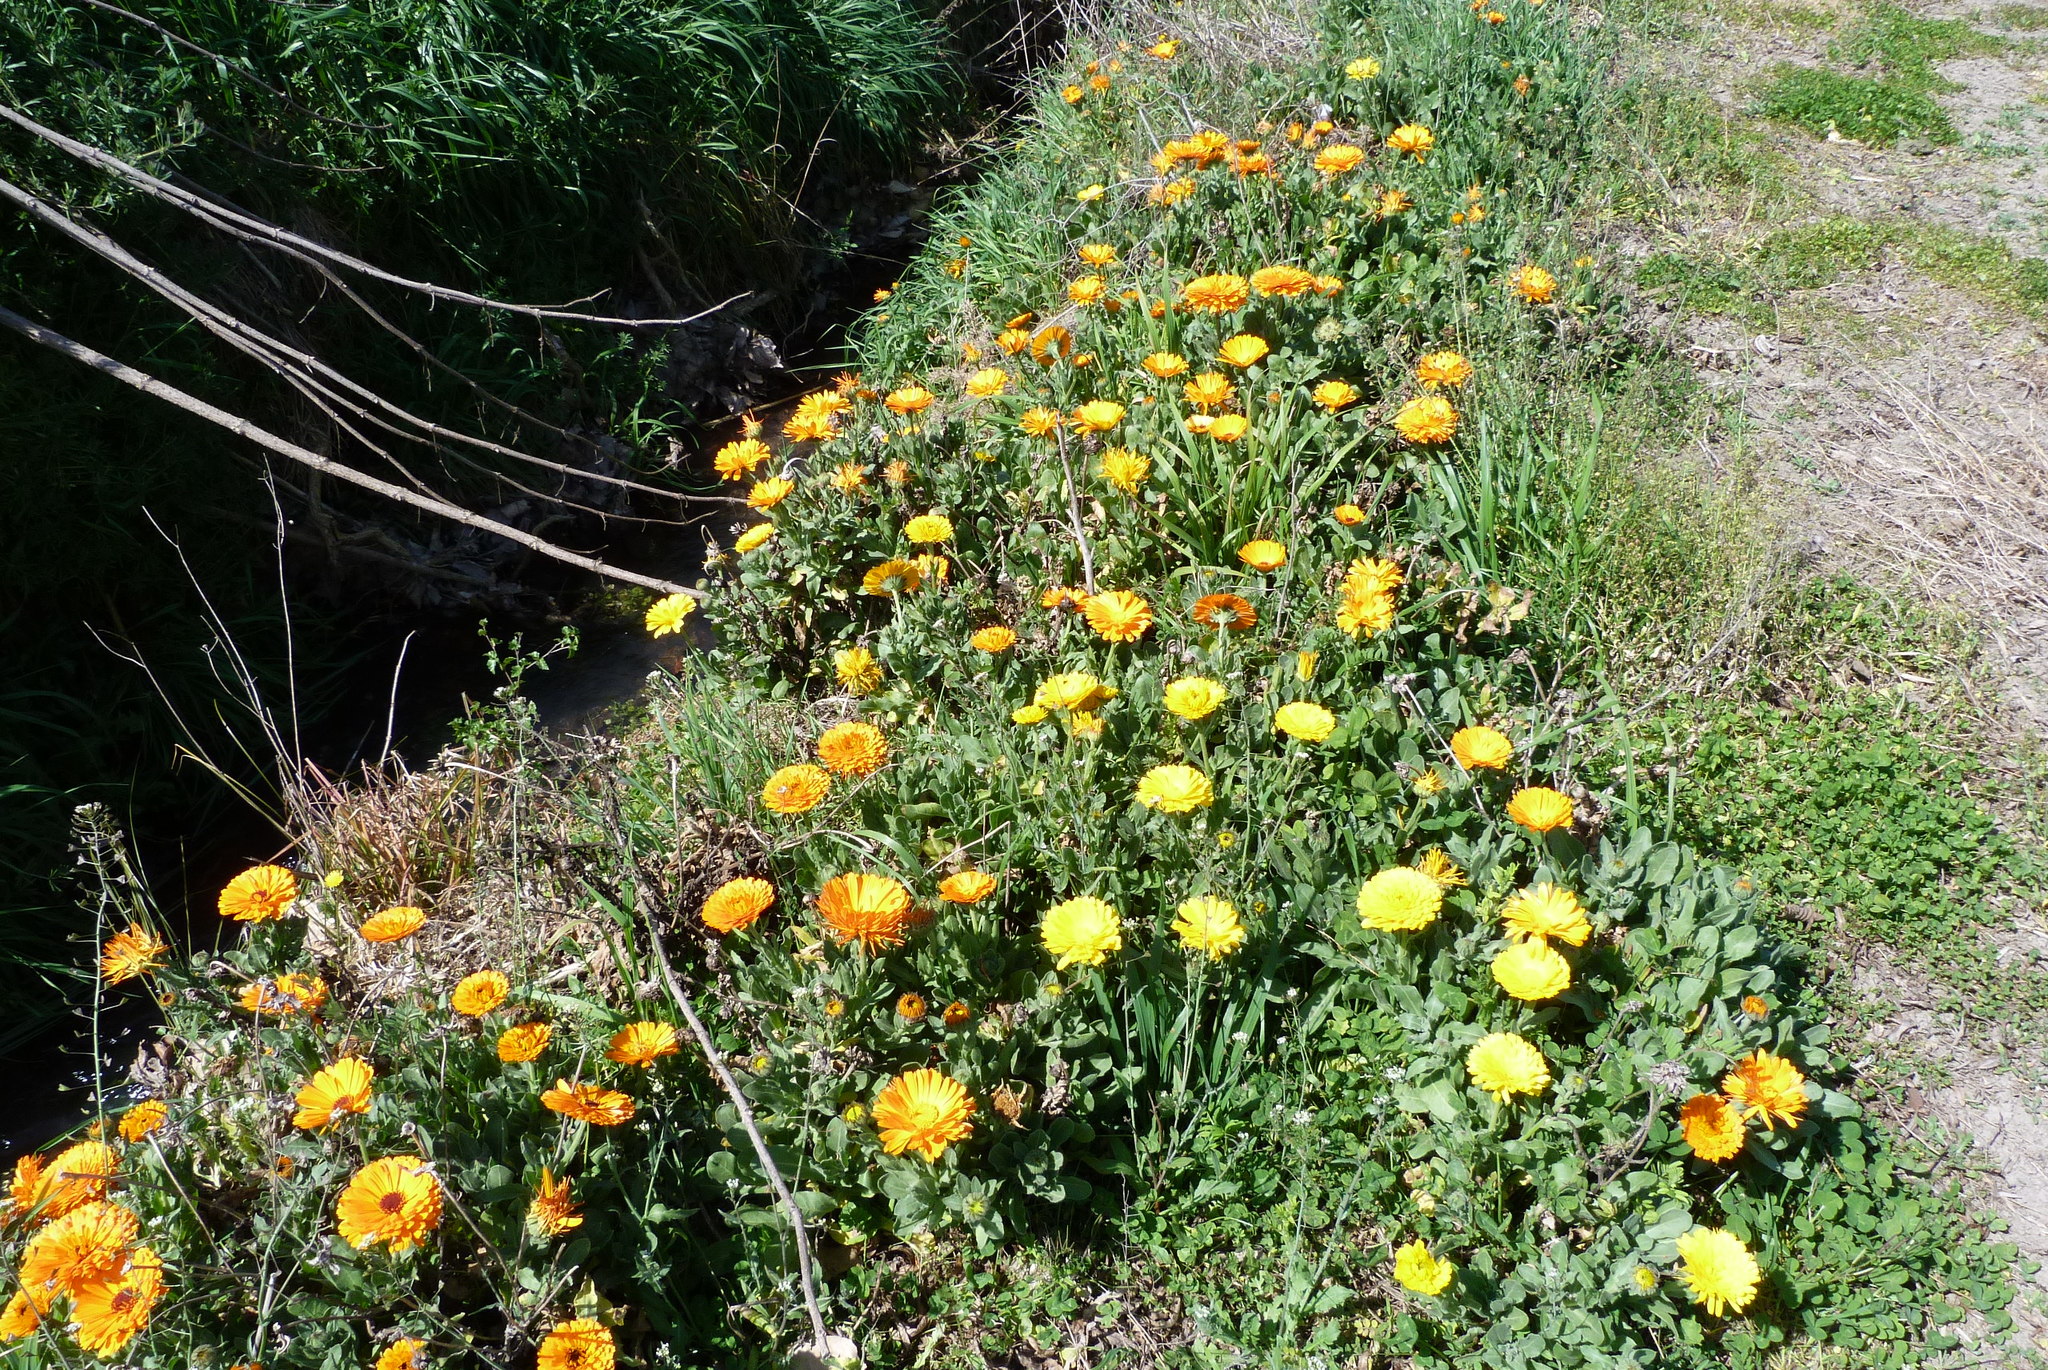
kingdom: Plantae
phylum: Tracheophyta
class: Magnoliopsida
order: Asterales
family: Asteraceae
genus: Calendula
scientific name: Calendula officinalis
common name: Pot marigold
